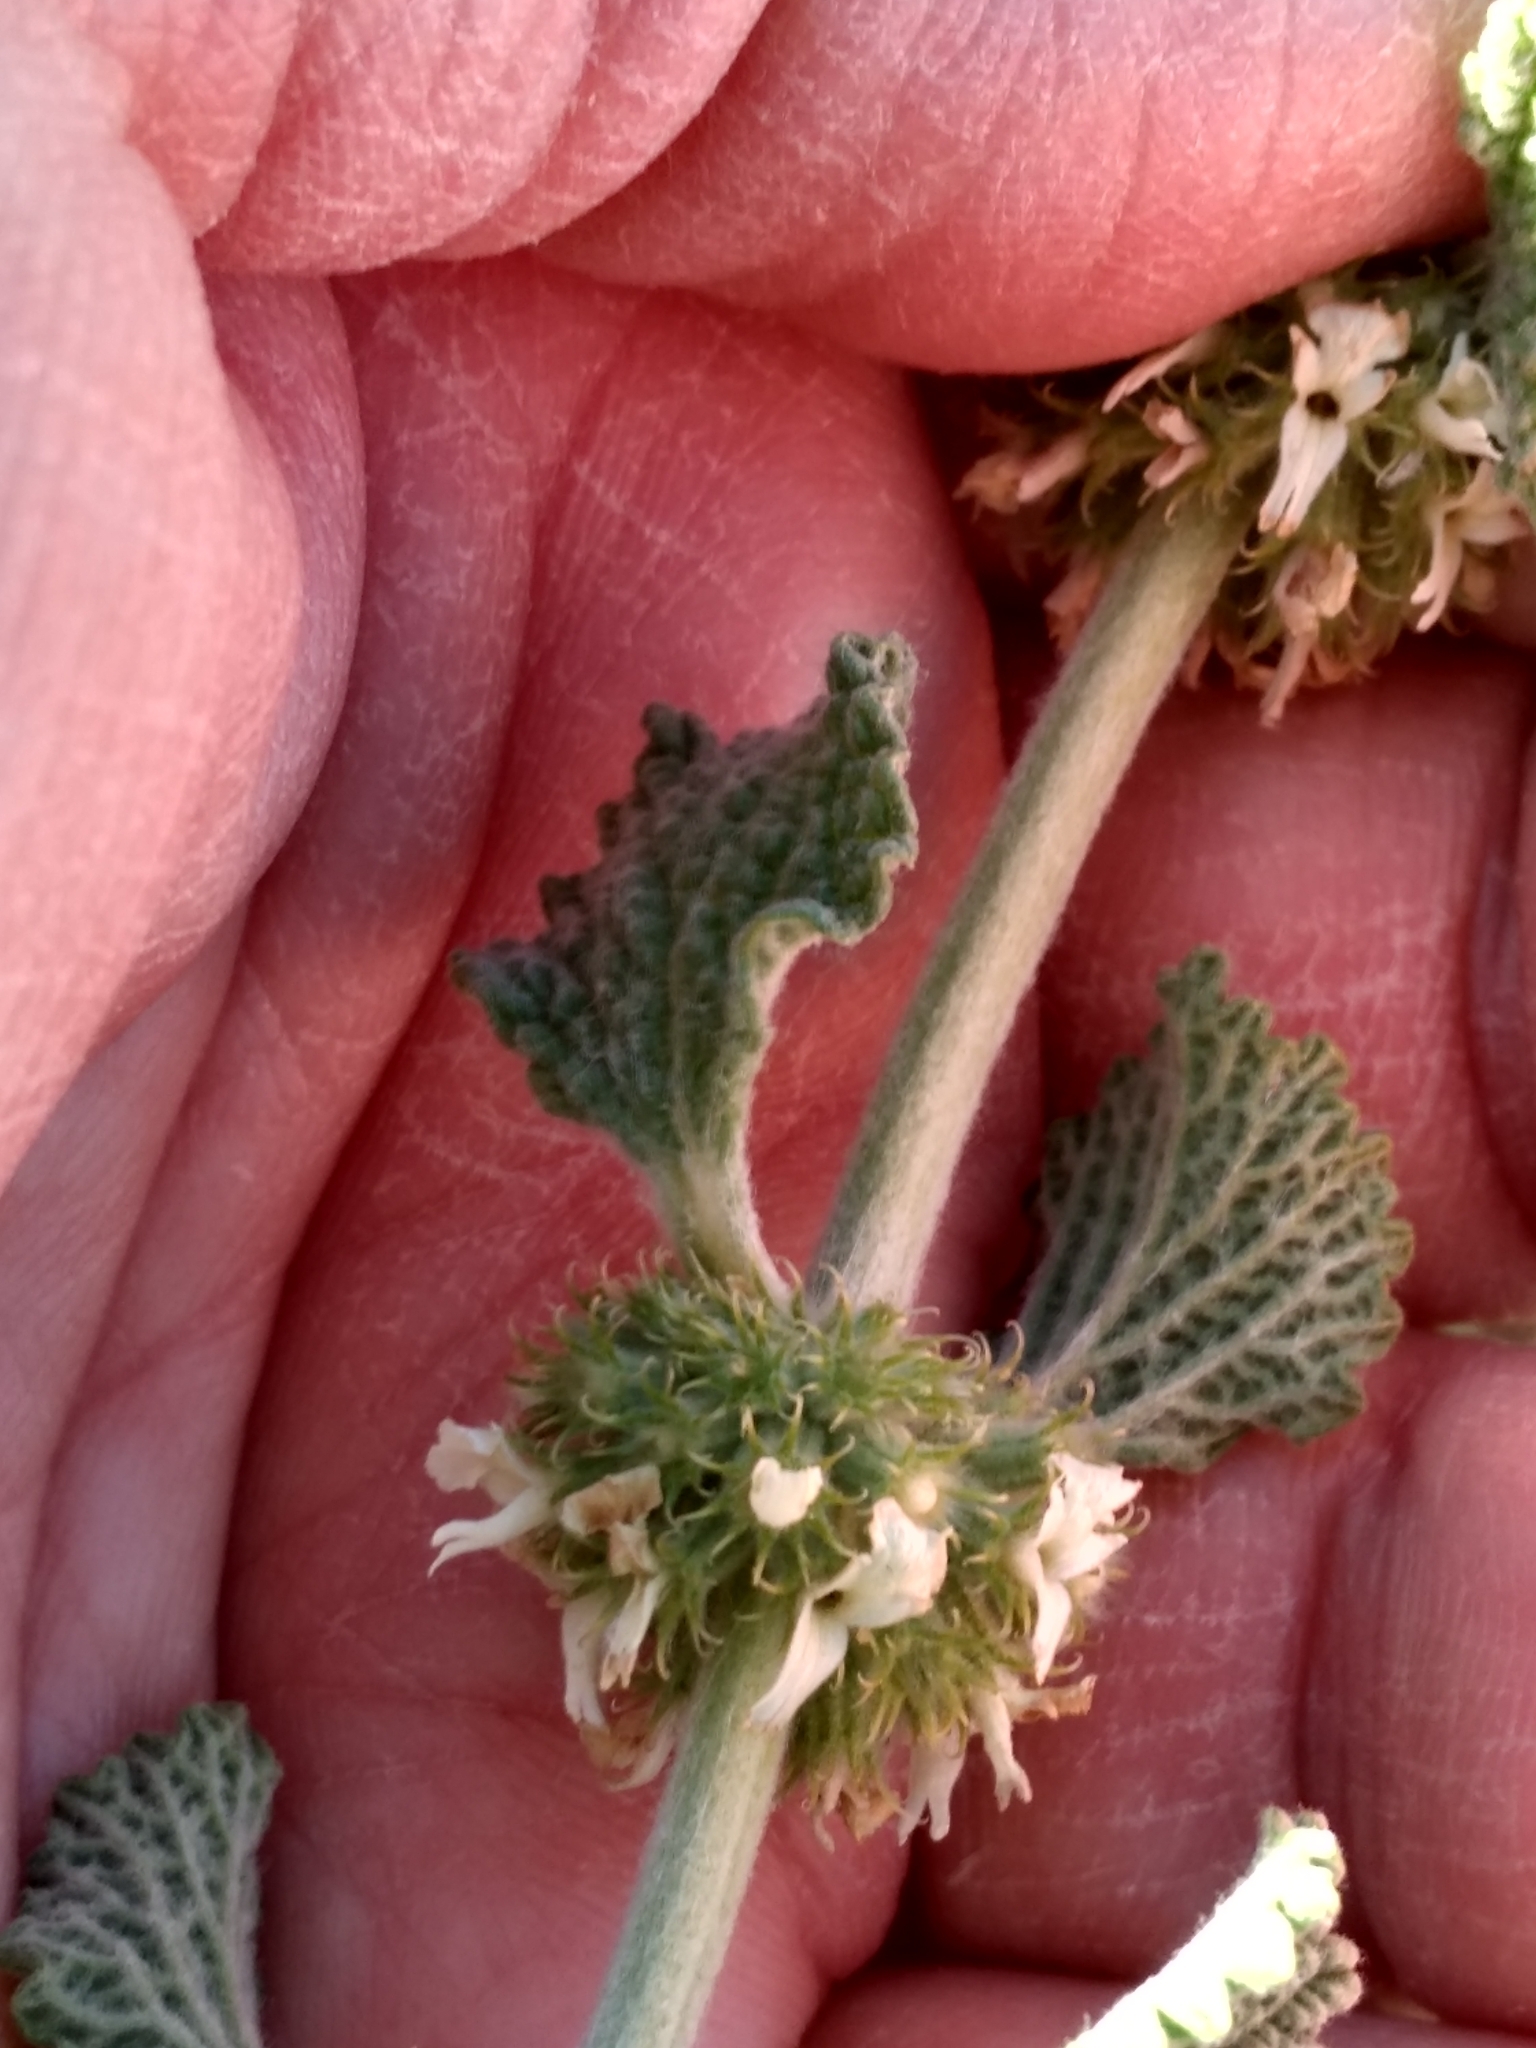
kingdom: Plantae
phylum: Tracheophyta
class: Magnoliopsida
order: Lamiales
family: Lamiaceae
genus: Marrubium
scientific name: Marrubium vulgare
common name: Horehound
